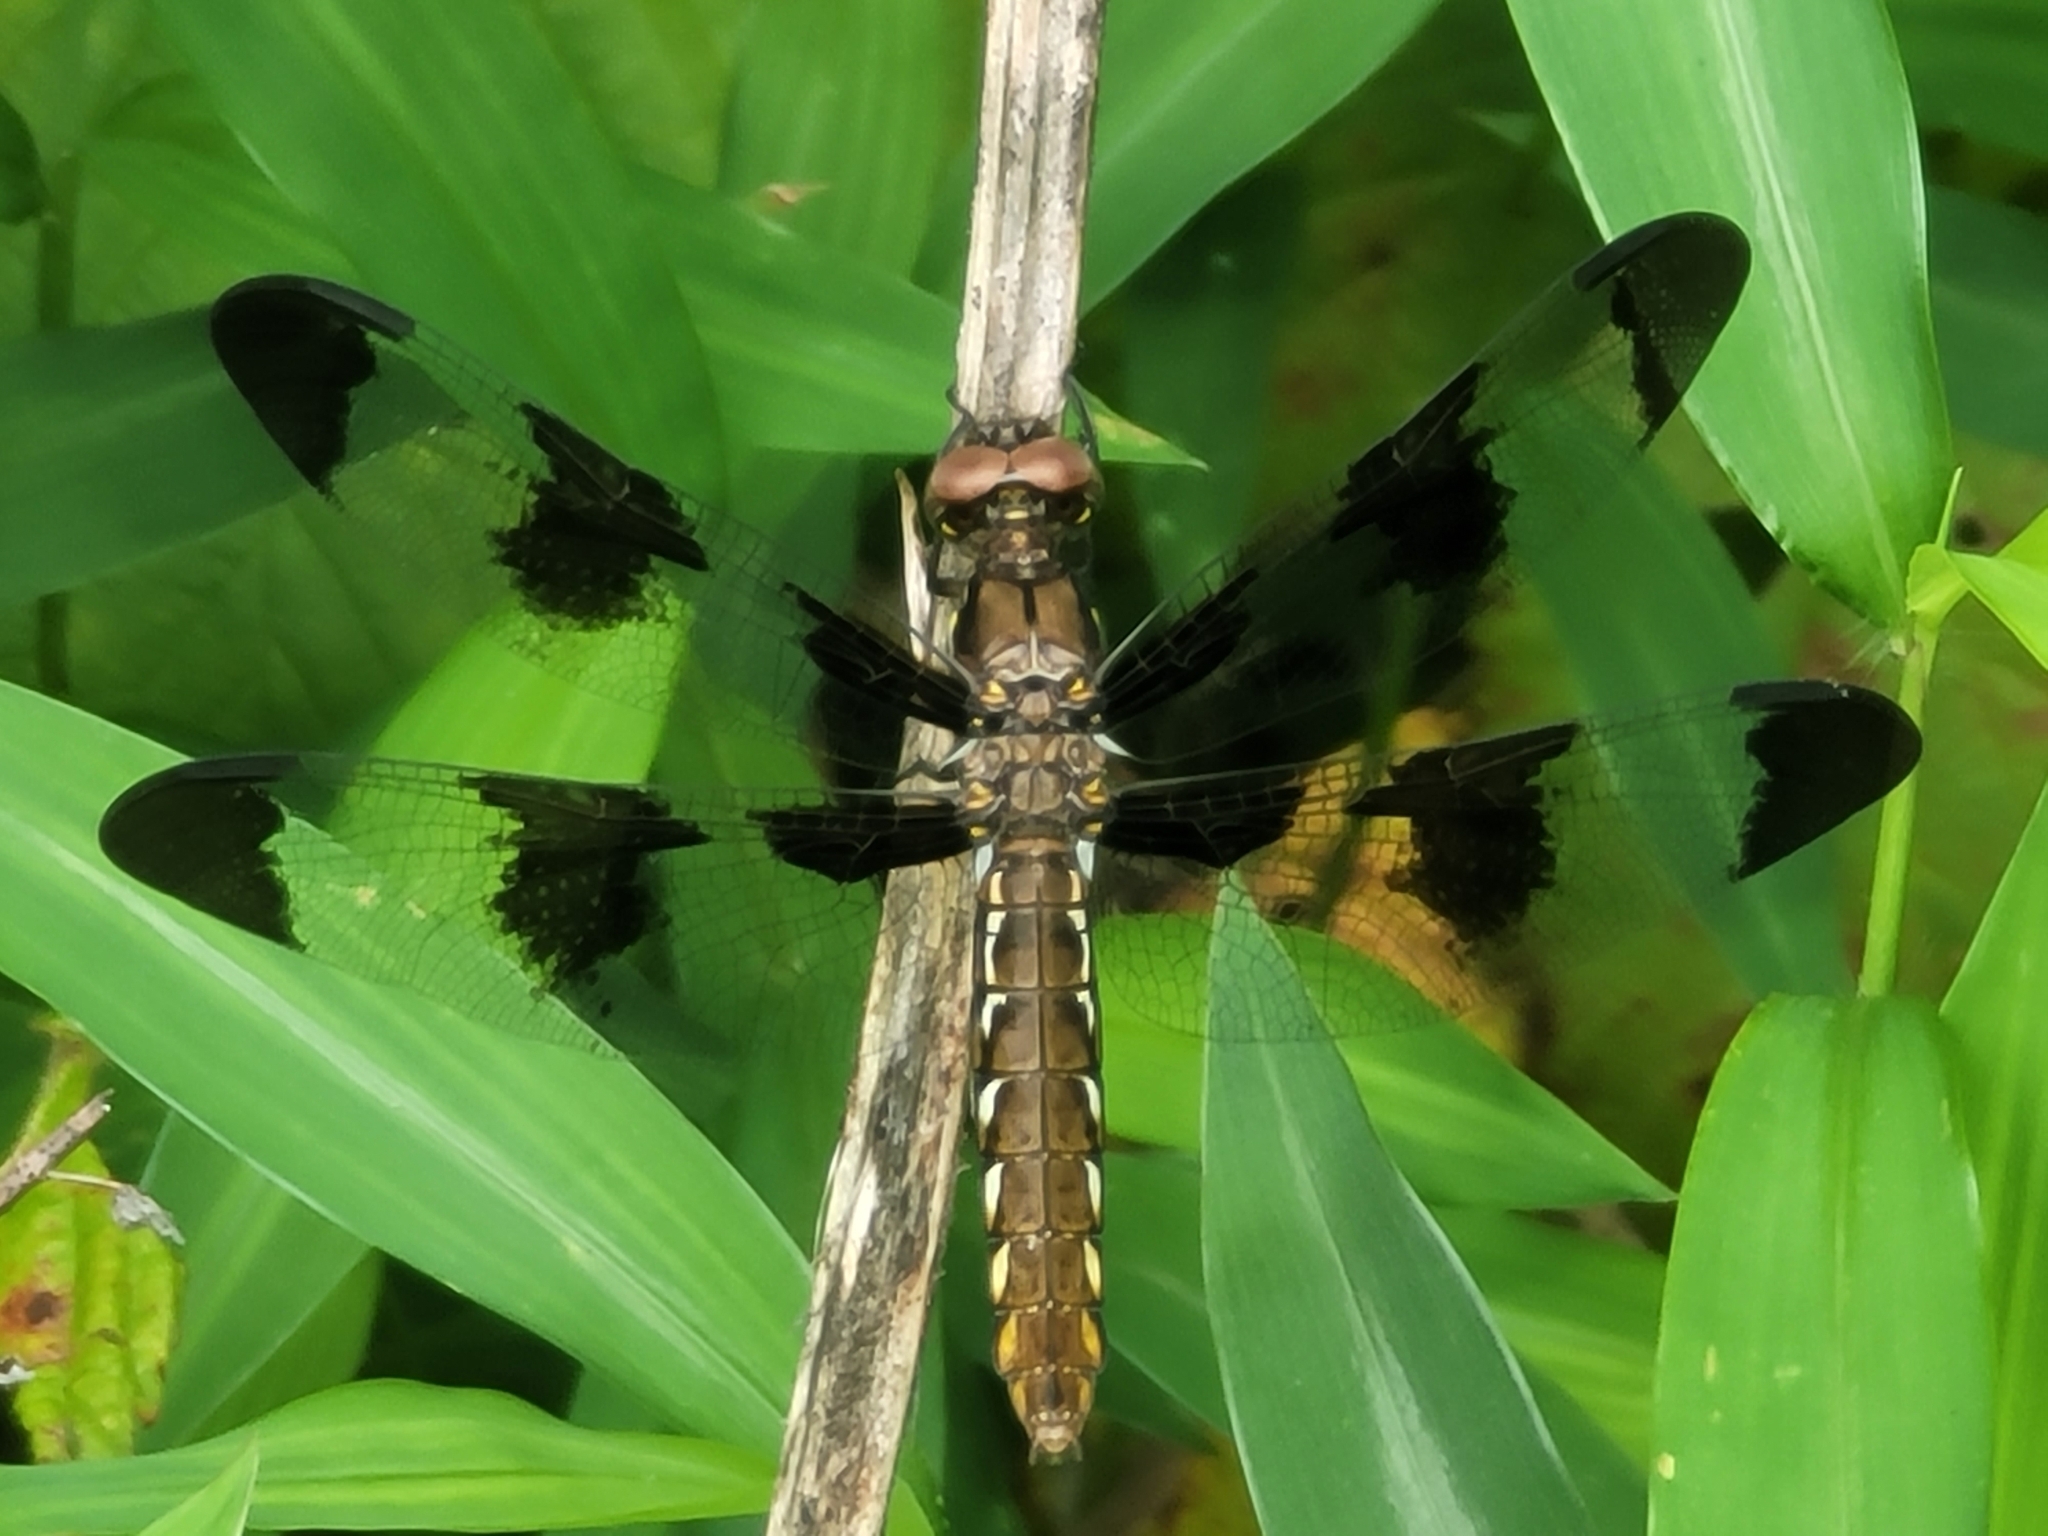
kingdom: Animalia
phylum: Arthropoda
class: Insecta
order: Odonata
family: Libellulidae
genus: Plathemis
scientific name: Plathemis lydia
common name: Common whitetail
